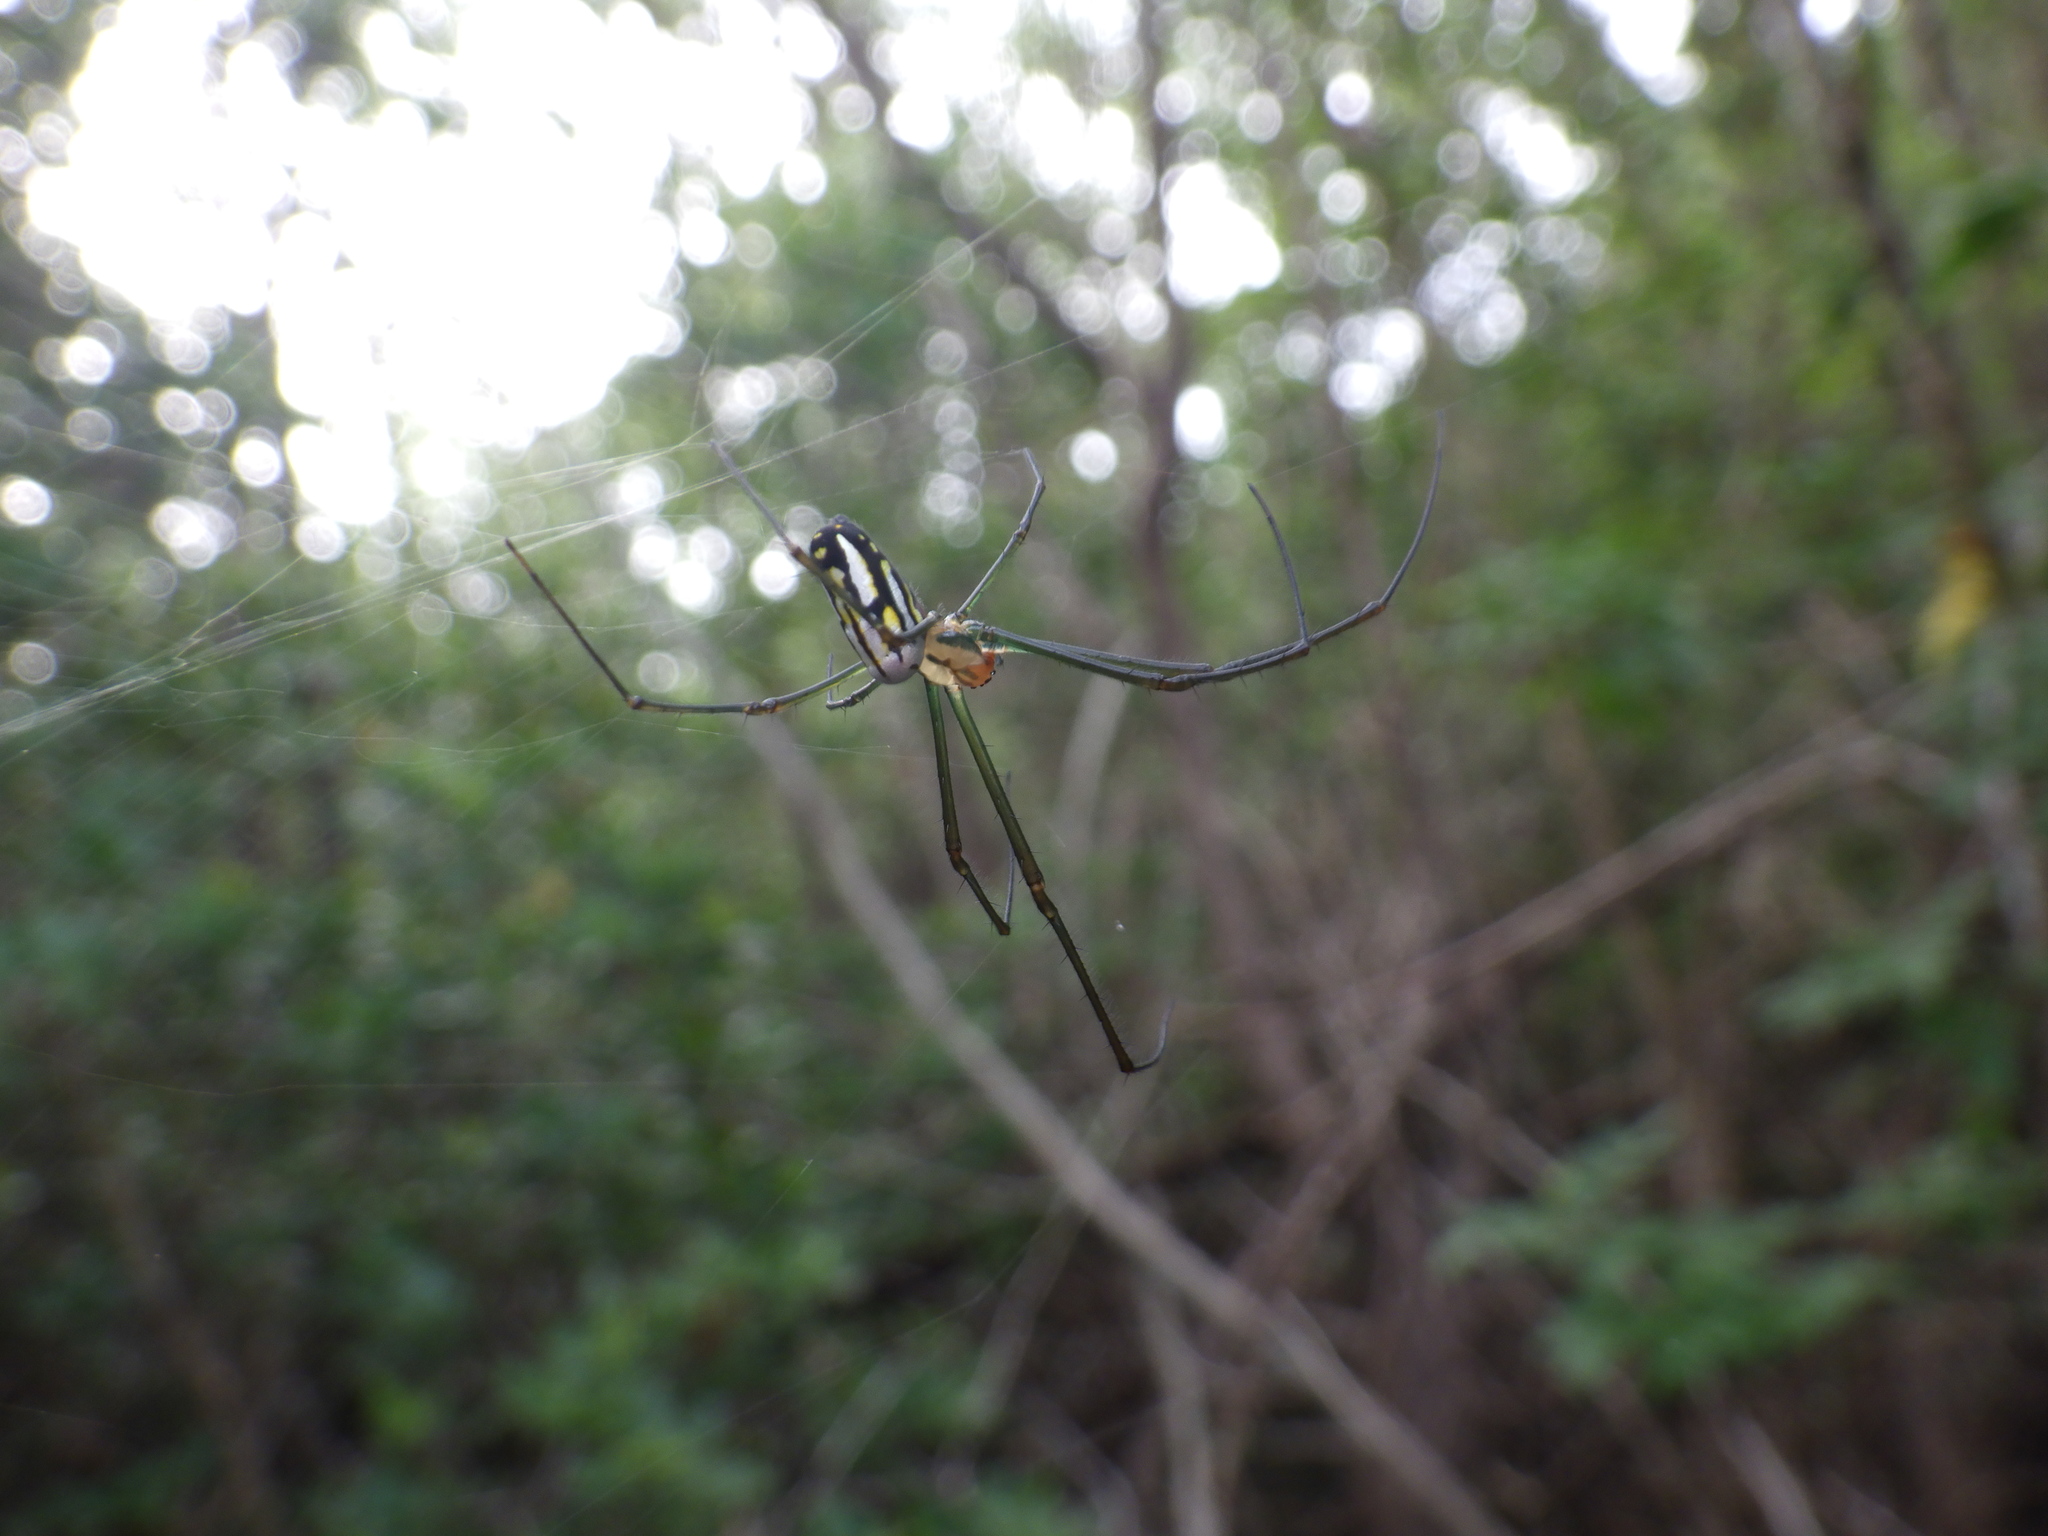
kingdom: Animalia
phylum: Arthropoda
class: Arachnida
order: Araneae
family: Tetragnathidae
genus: Leucauge
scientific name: Leucauge argyra
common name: Longjawed orb weavers
